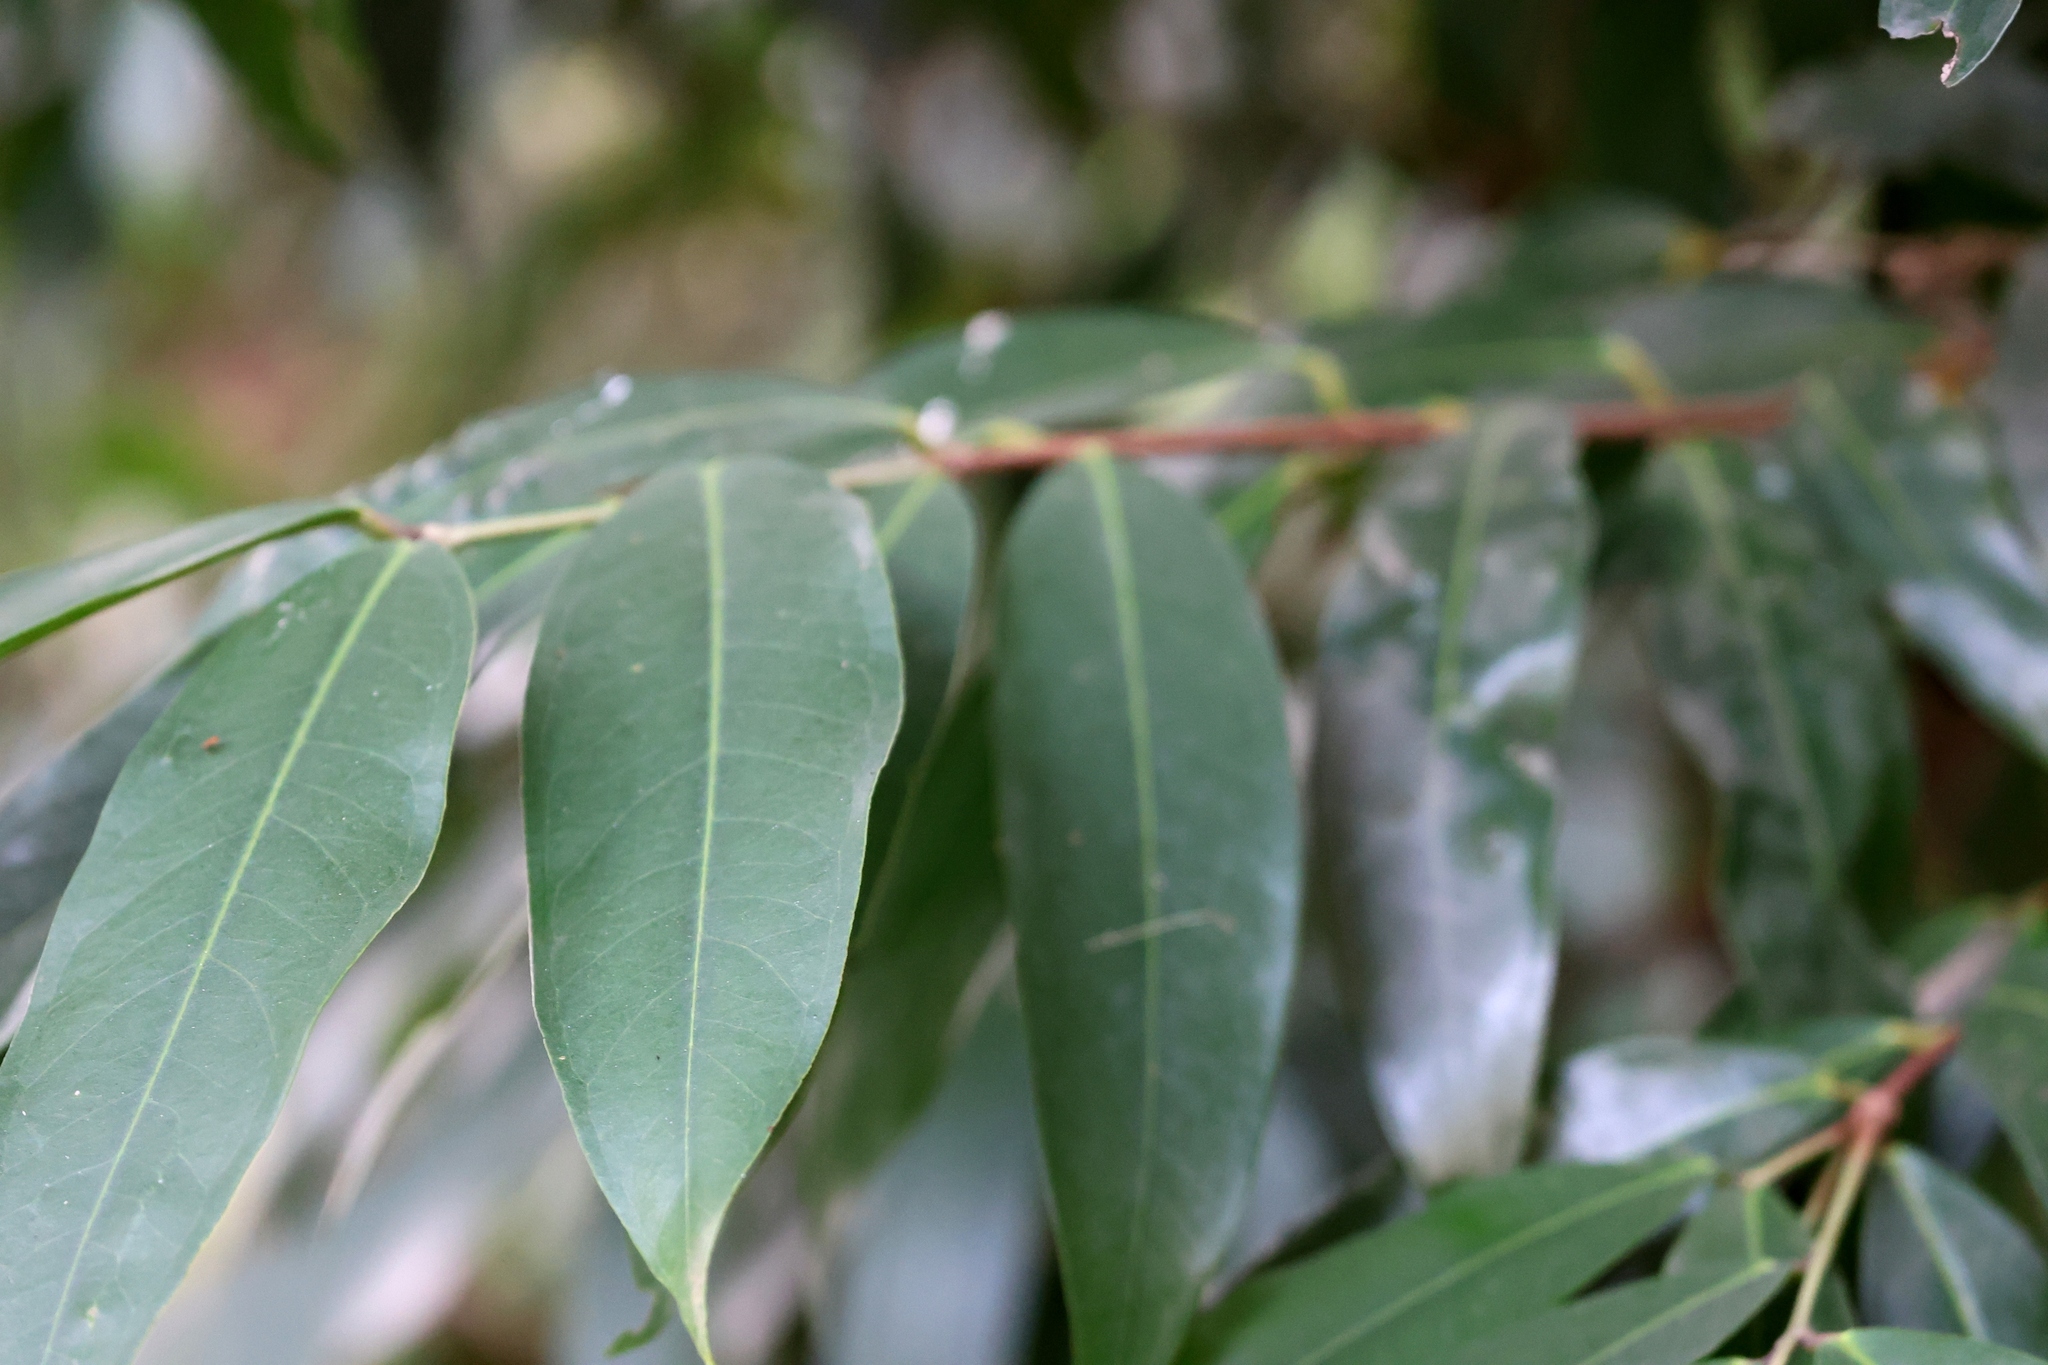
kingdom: Plantae
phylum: Tracheophyta
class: Magnoliopsida
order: Malpighiales
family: Hypericaceae
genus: Cratoxylum
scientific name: Cratoxylum cochinchinense
